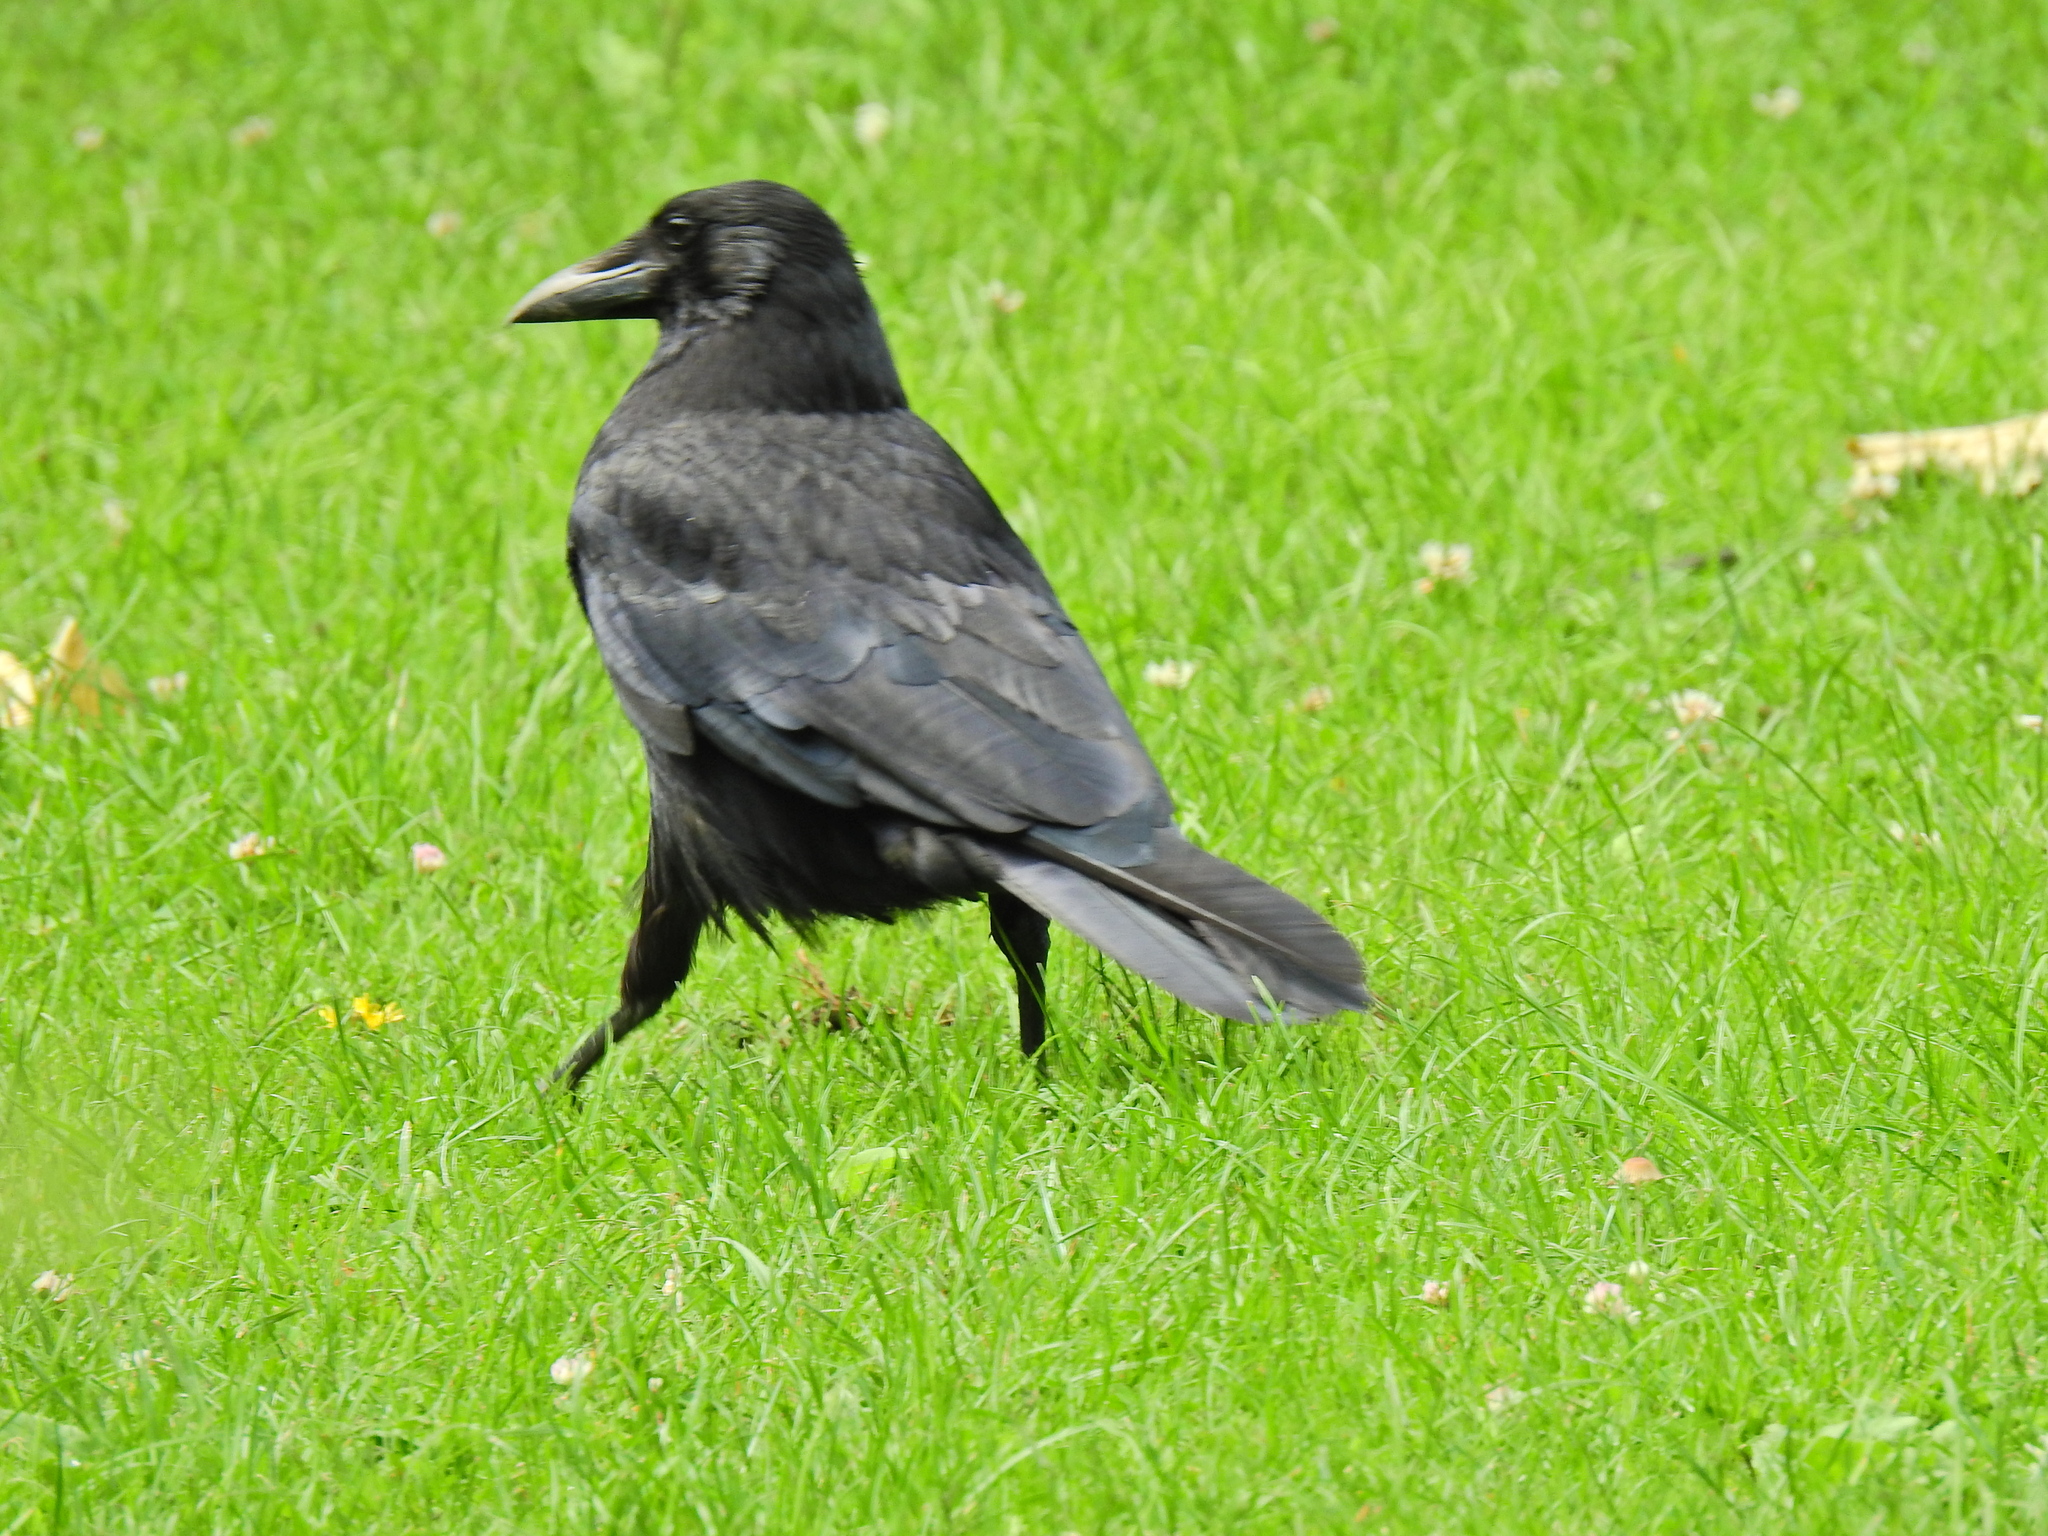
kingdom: Animalia
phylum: Chordata
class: Aves
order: Passeriformes
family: Corvidae
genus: Corvus
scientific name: Corvus corone
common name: Carrion crow
